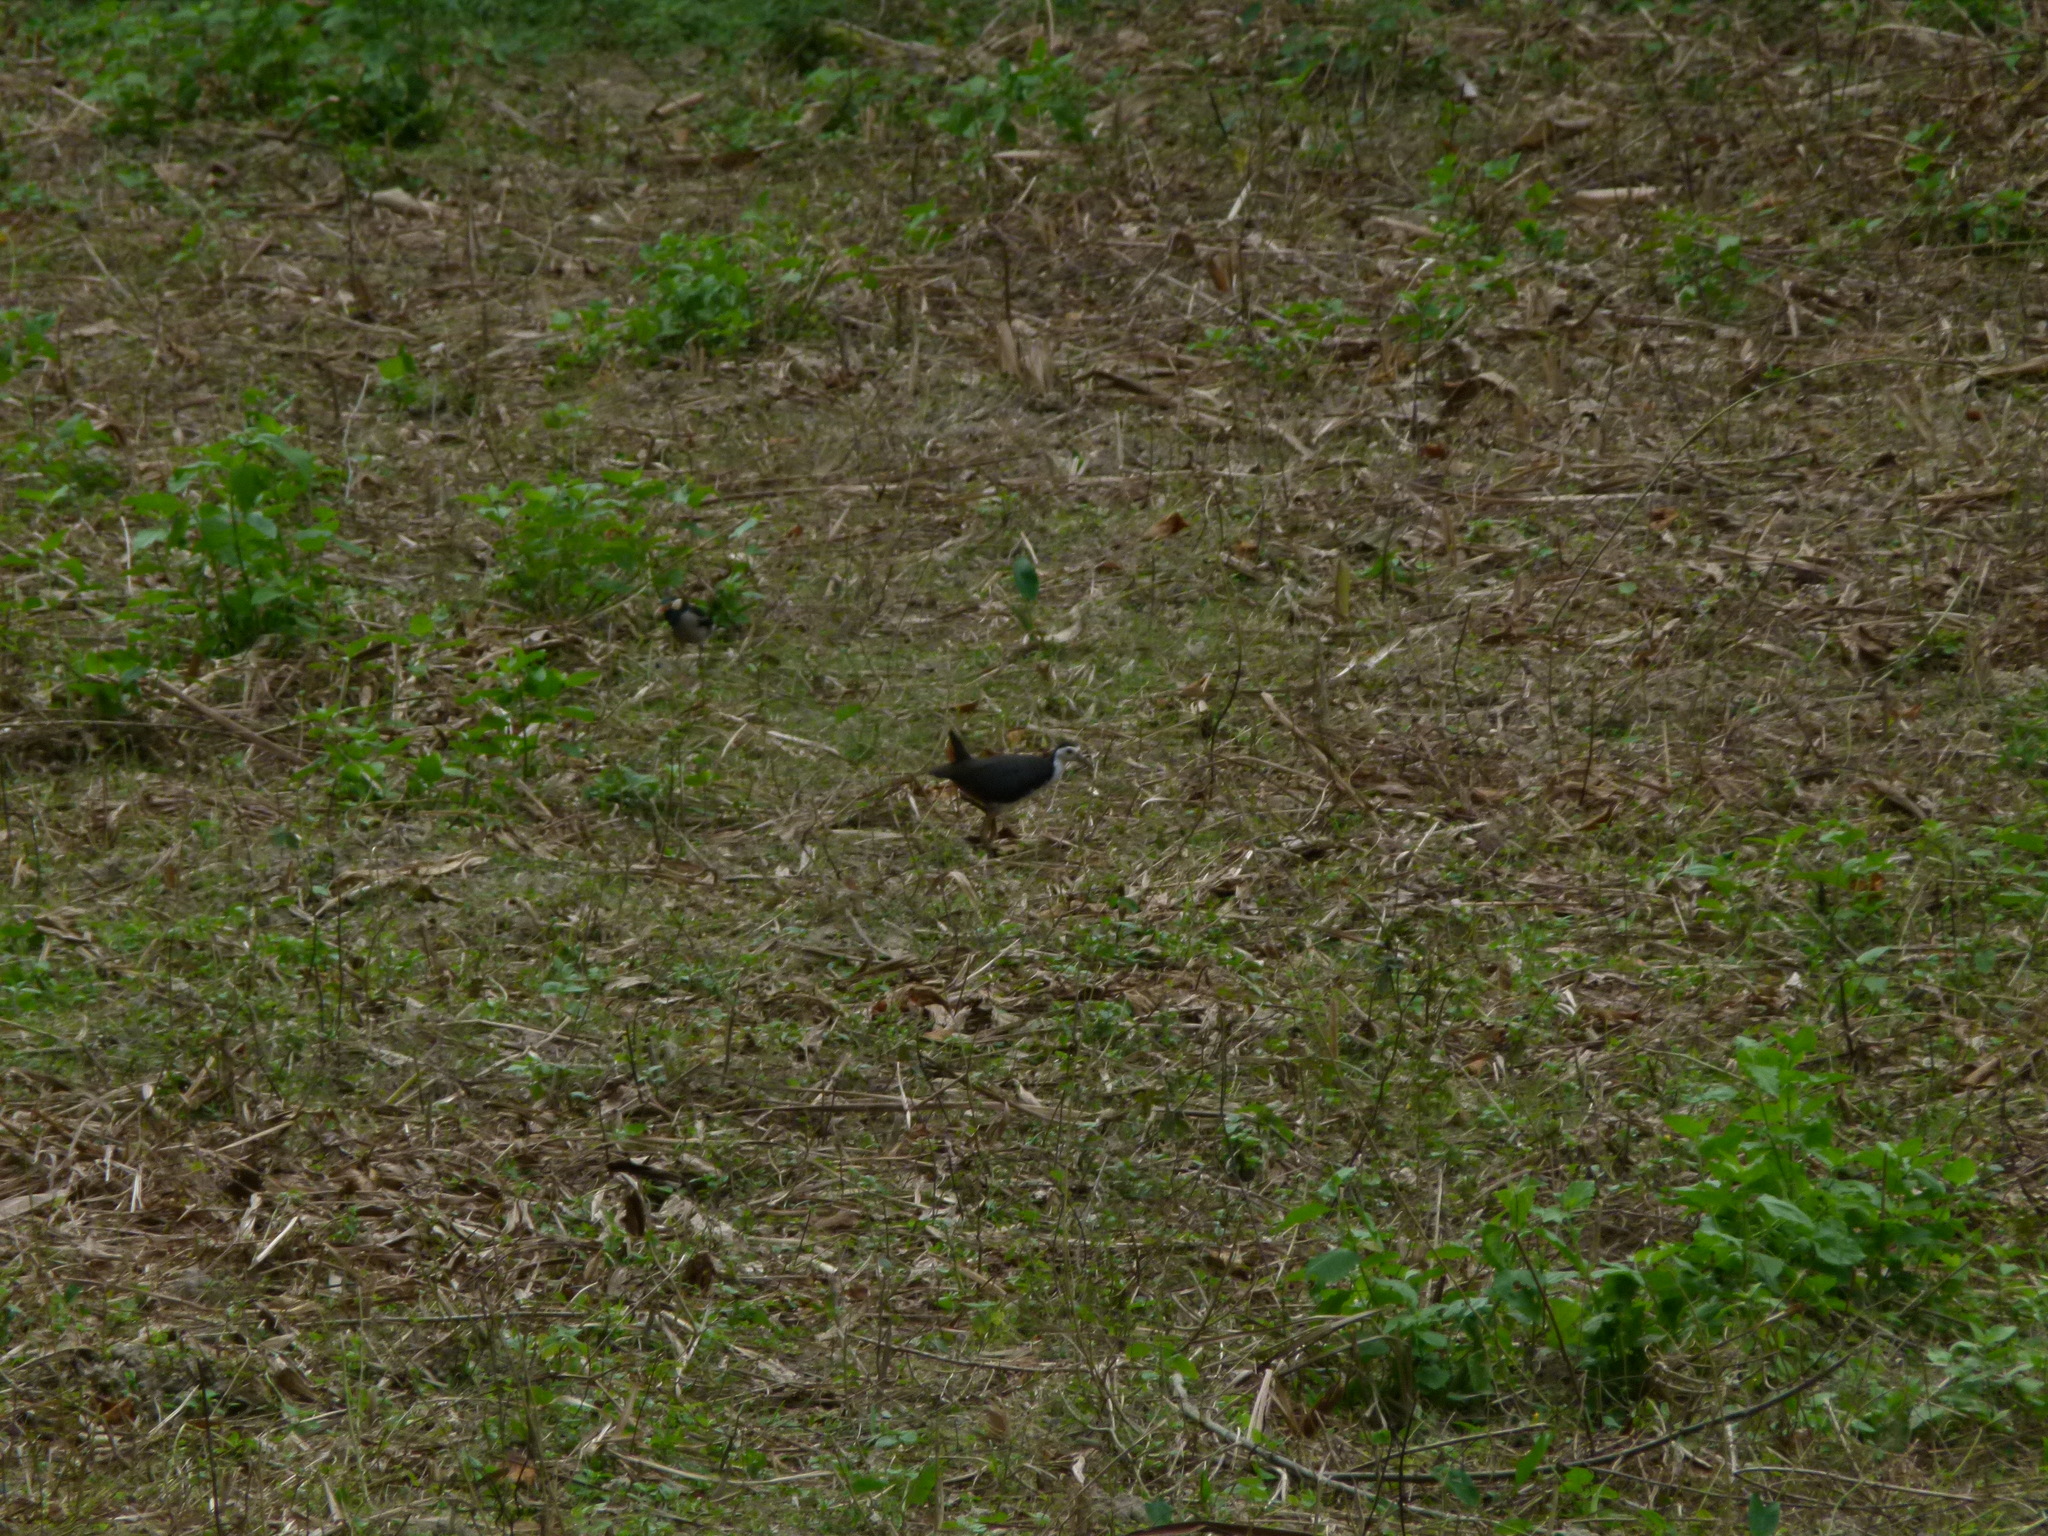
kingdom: Animalia
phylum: Chordata
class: Aves
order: Gruiformes
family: Rallidae
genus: Amaurornis
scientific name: Amaurornis phoenicurus
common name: White-breasted waterhen
